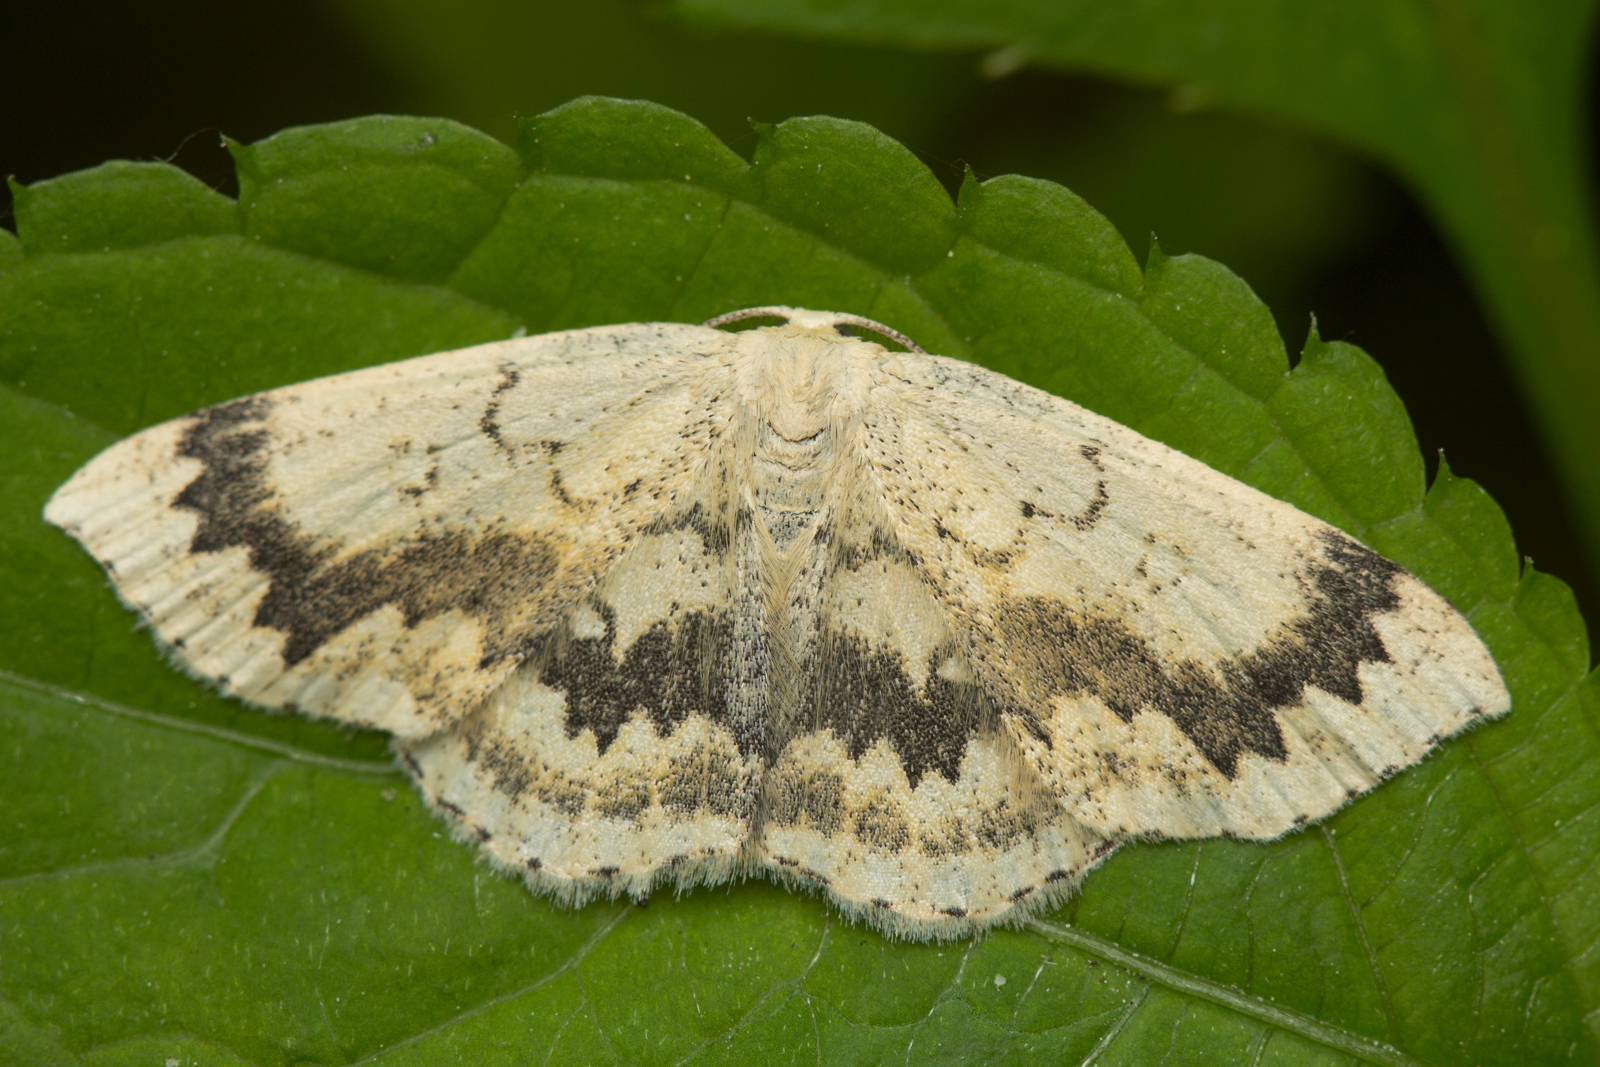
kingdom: Animalia
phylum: Arthropoda
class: Insecta
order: Lepidoptera
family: Geometridae
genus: Cyclophora
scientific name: Cyclophora annularia
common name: Mocha
